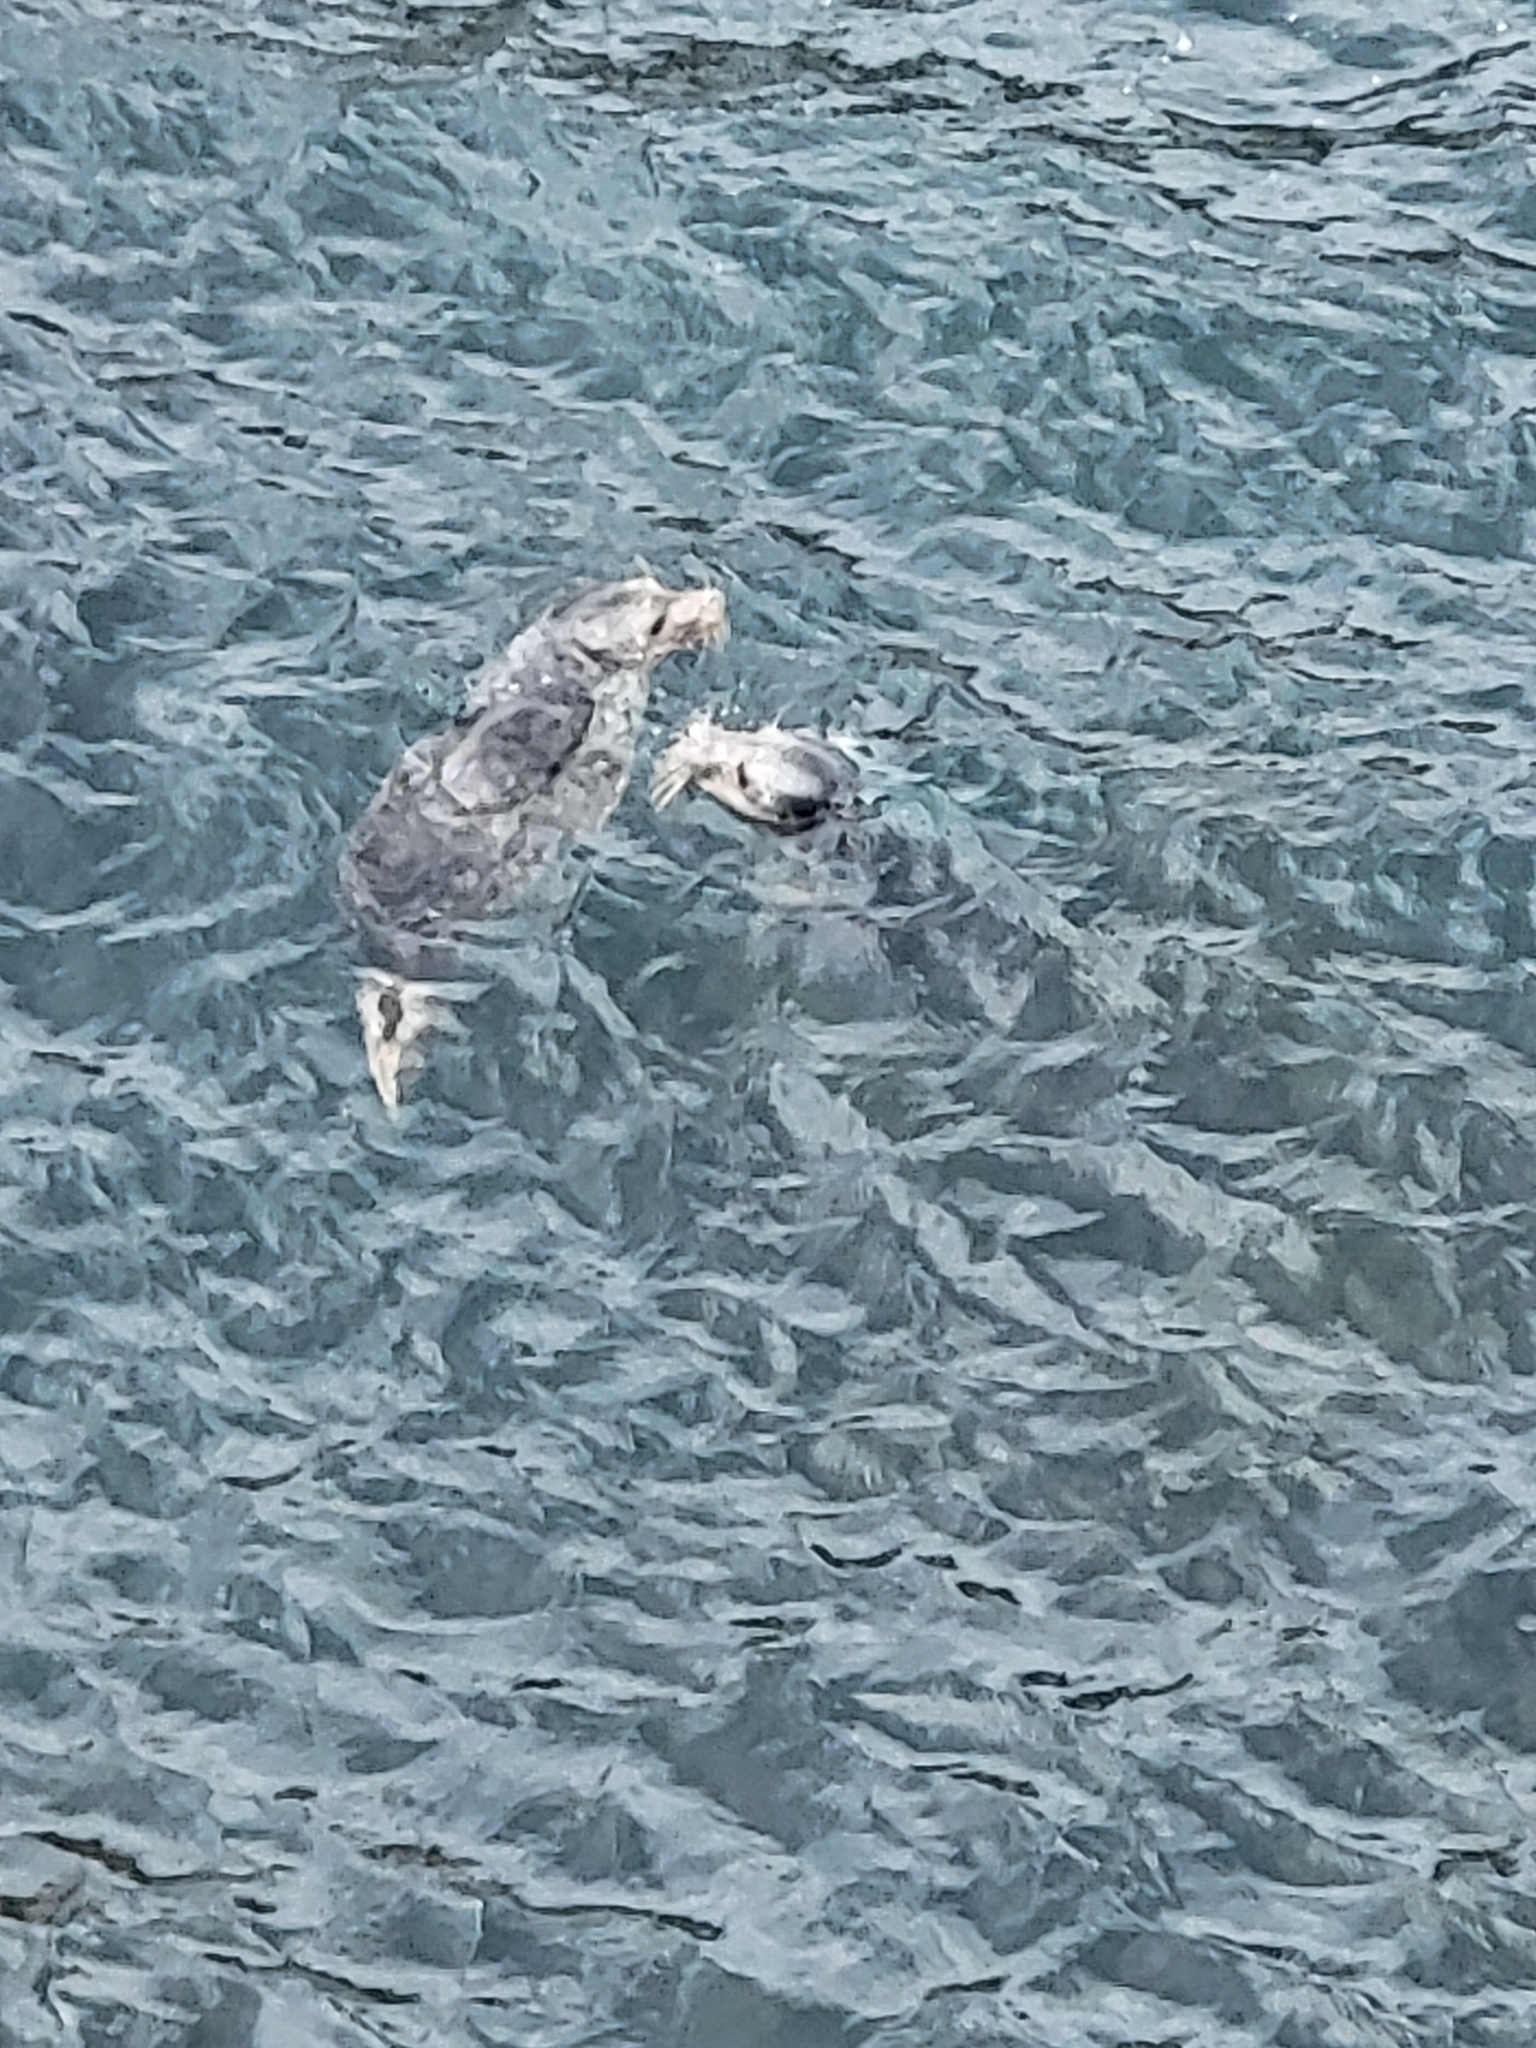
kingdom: Animalia
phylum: Chordata
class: Mammalia
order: Carnivora
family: Phocidae
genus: Halichoerus
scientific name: Halichoerus grypus
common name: Grey seal
